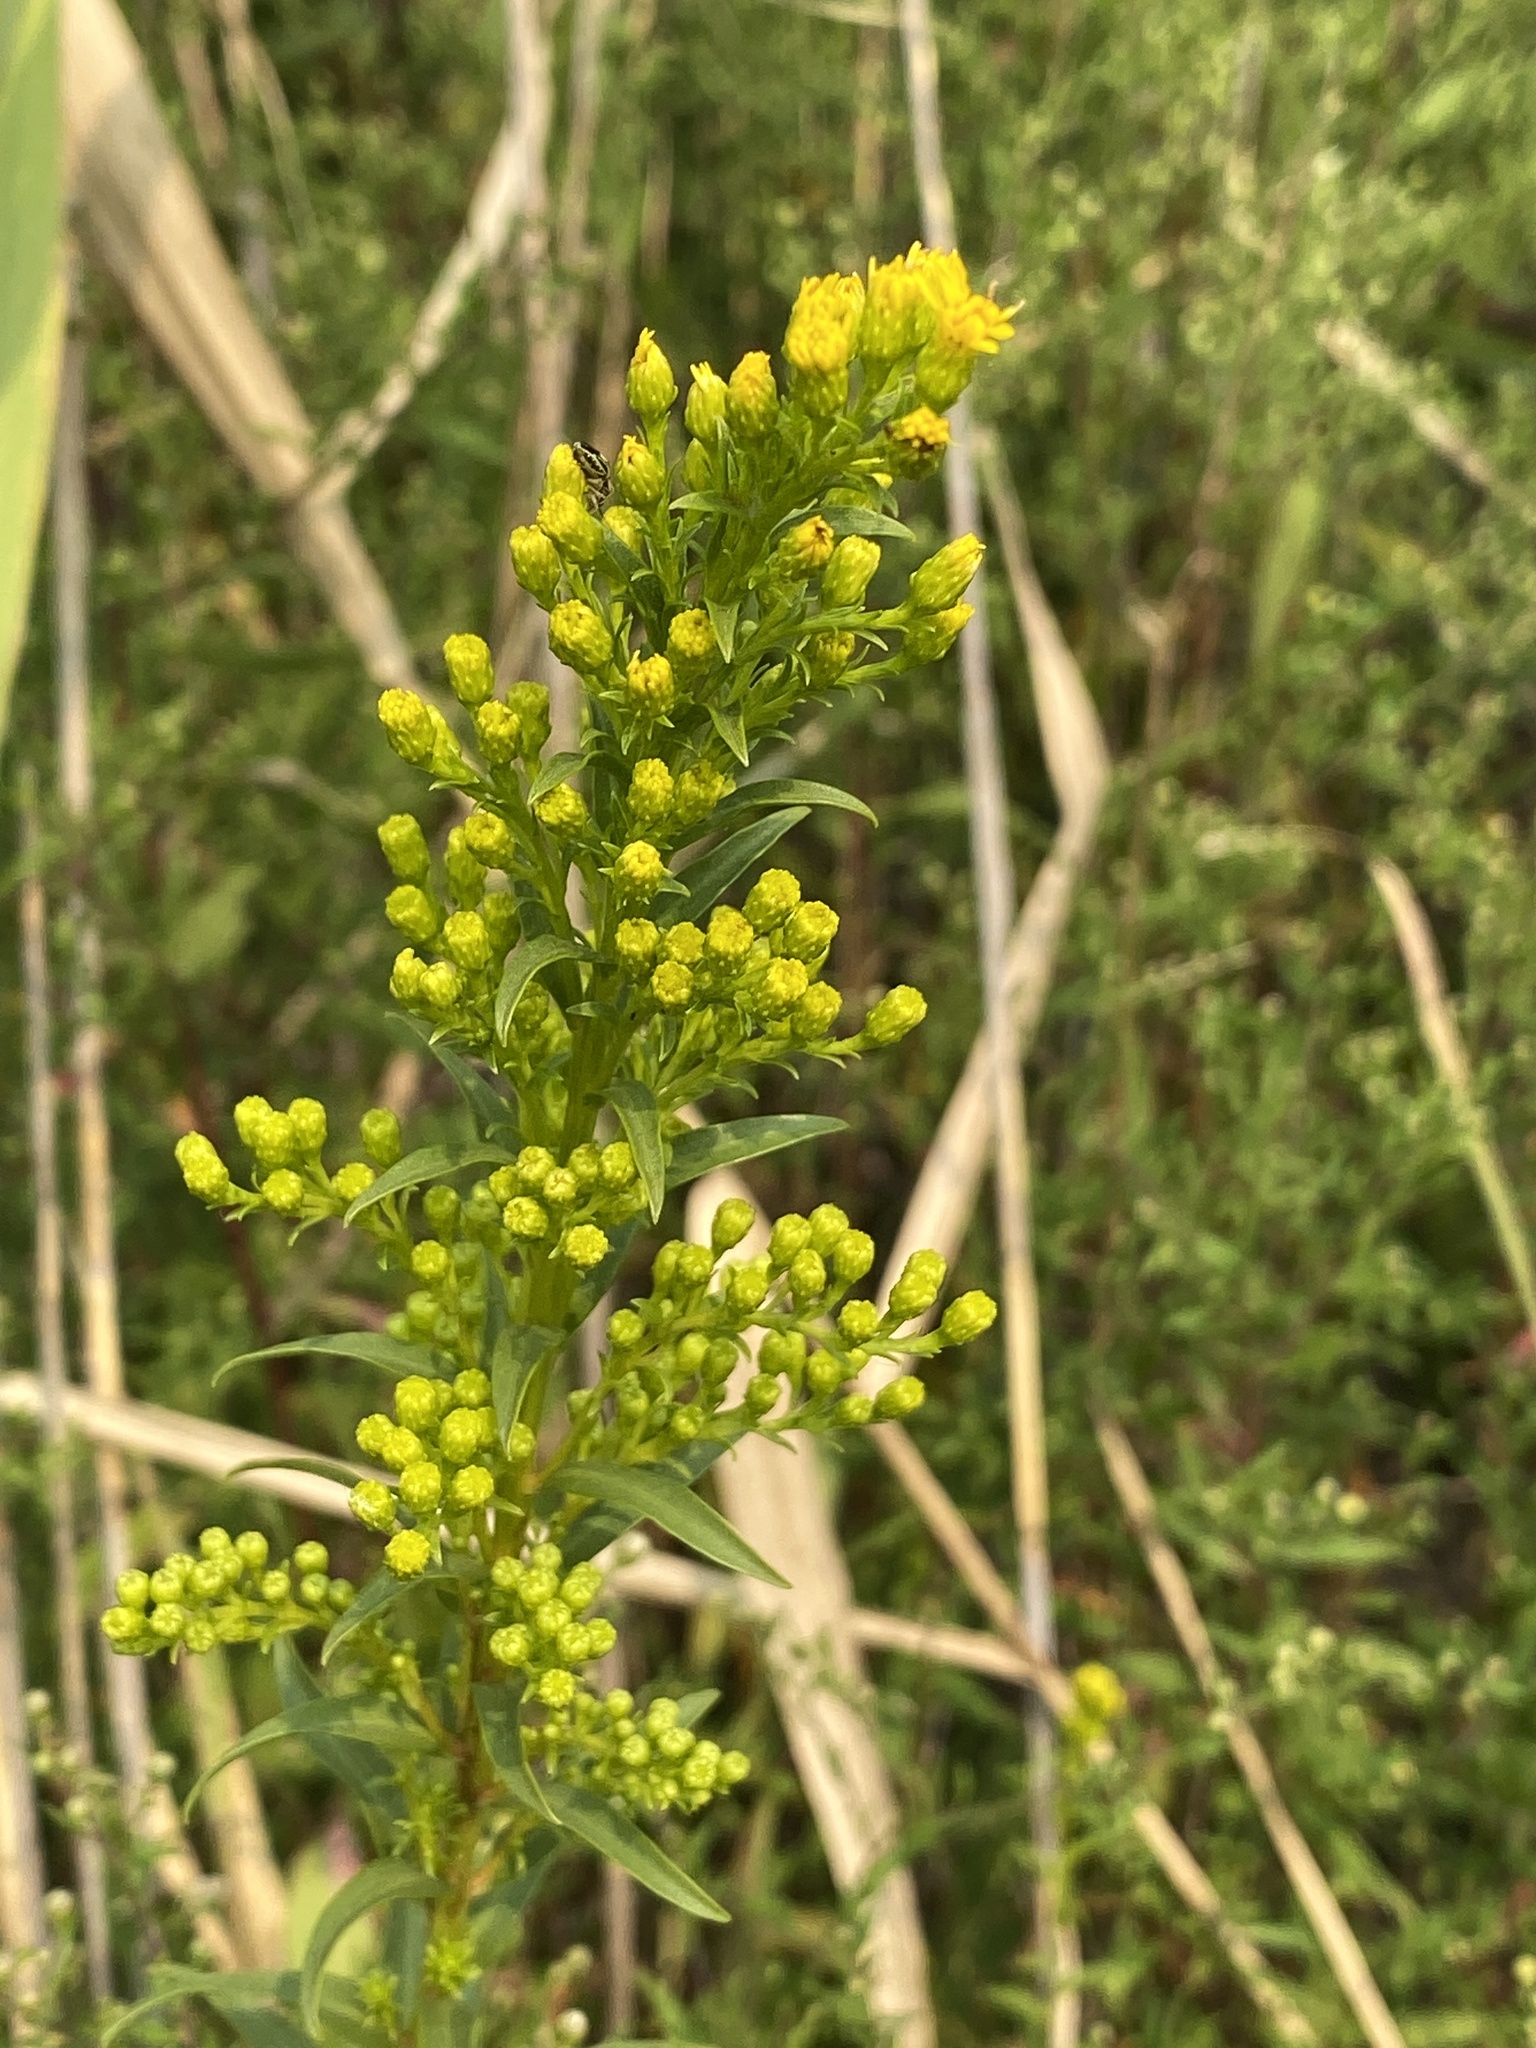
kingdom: Plantae
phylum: Tracheophyta
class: Magnoliopsida
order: Asterales
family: Asteraceae
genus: Solidago
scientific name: Solidago sempervirens
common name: Salt-marsh goldenrod
